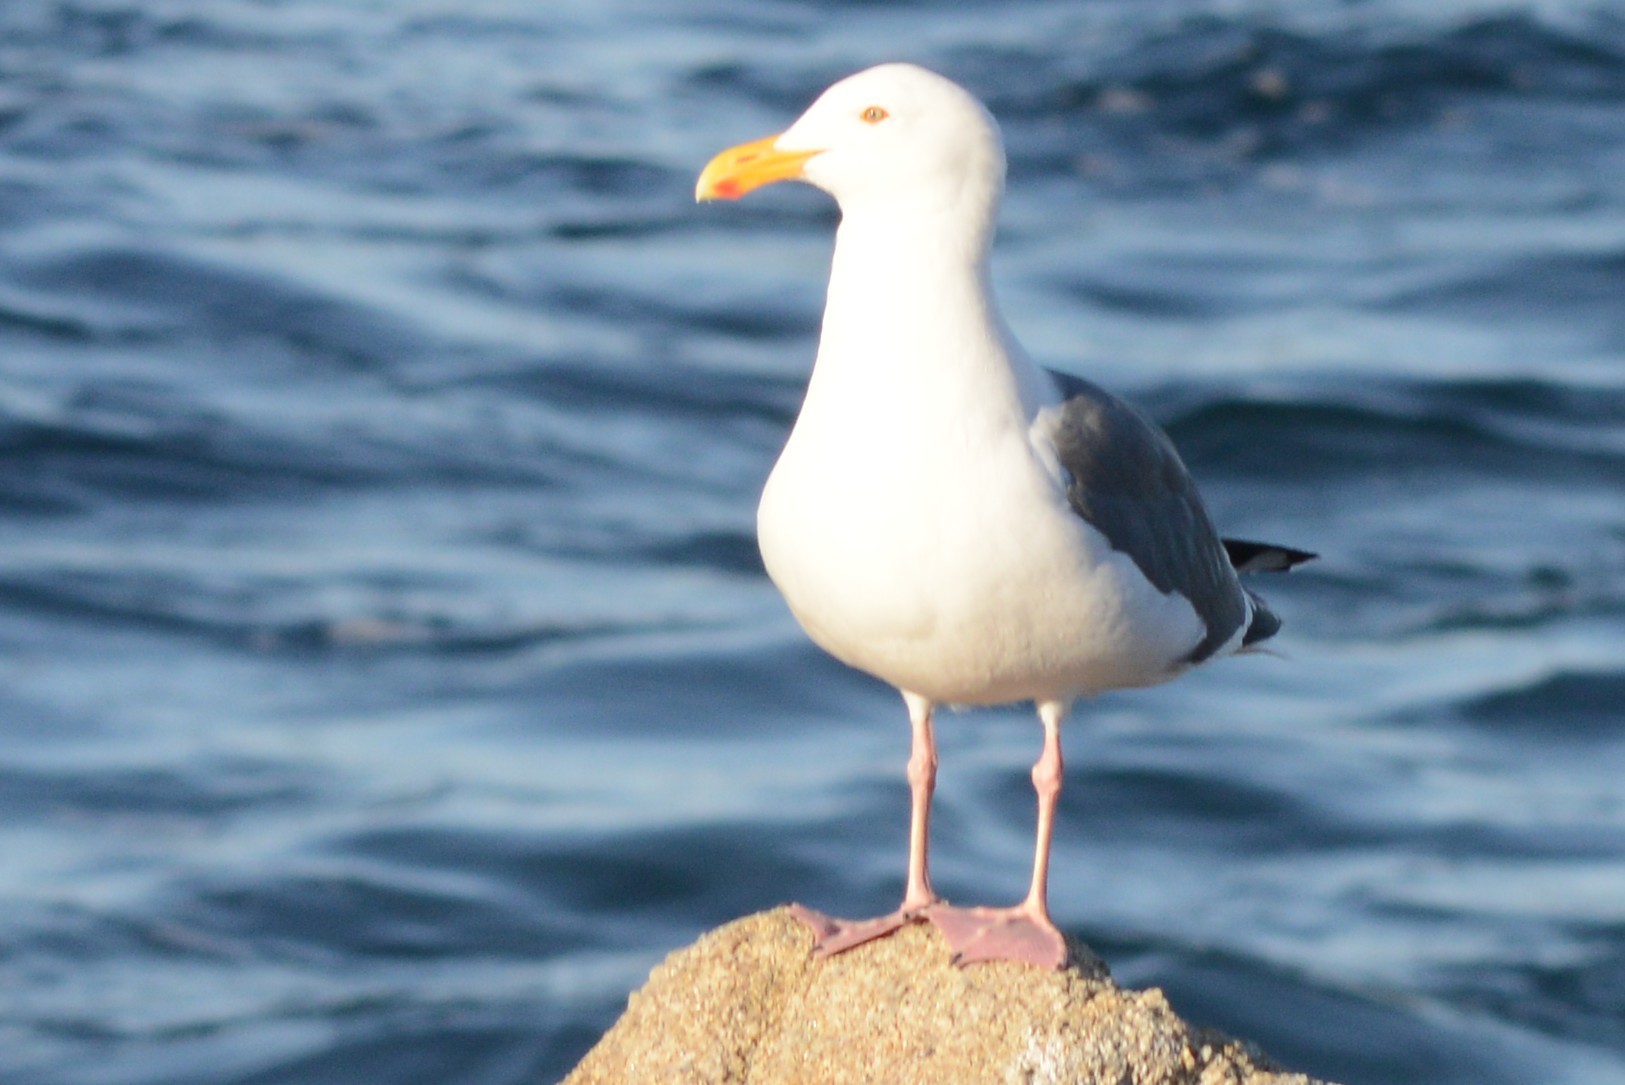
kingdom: Animalia
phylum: Chordata
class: Aves
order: Charadriiformes
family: Laridae
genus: Larus
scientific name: Larus occidentalis
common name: Western gull
